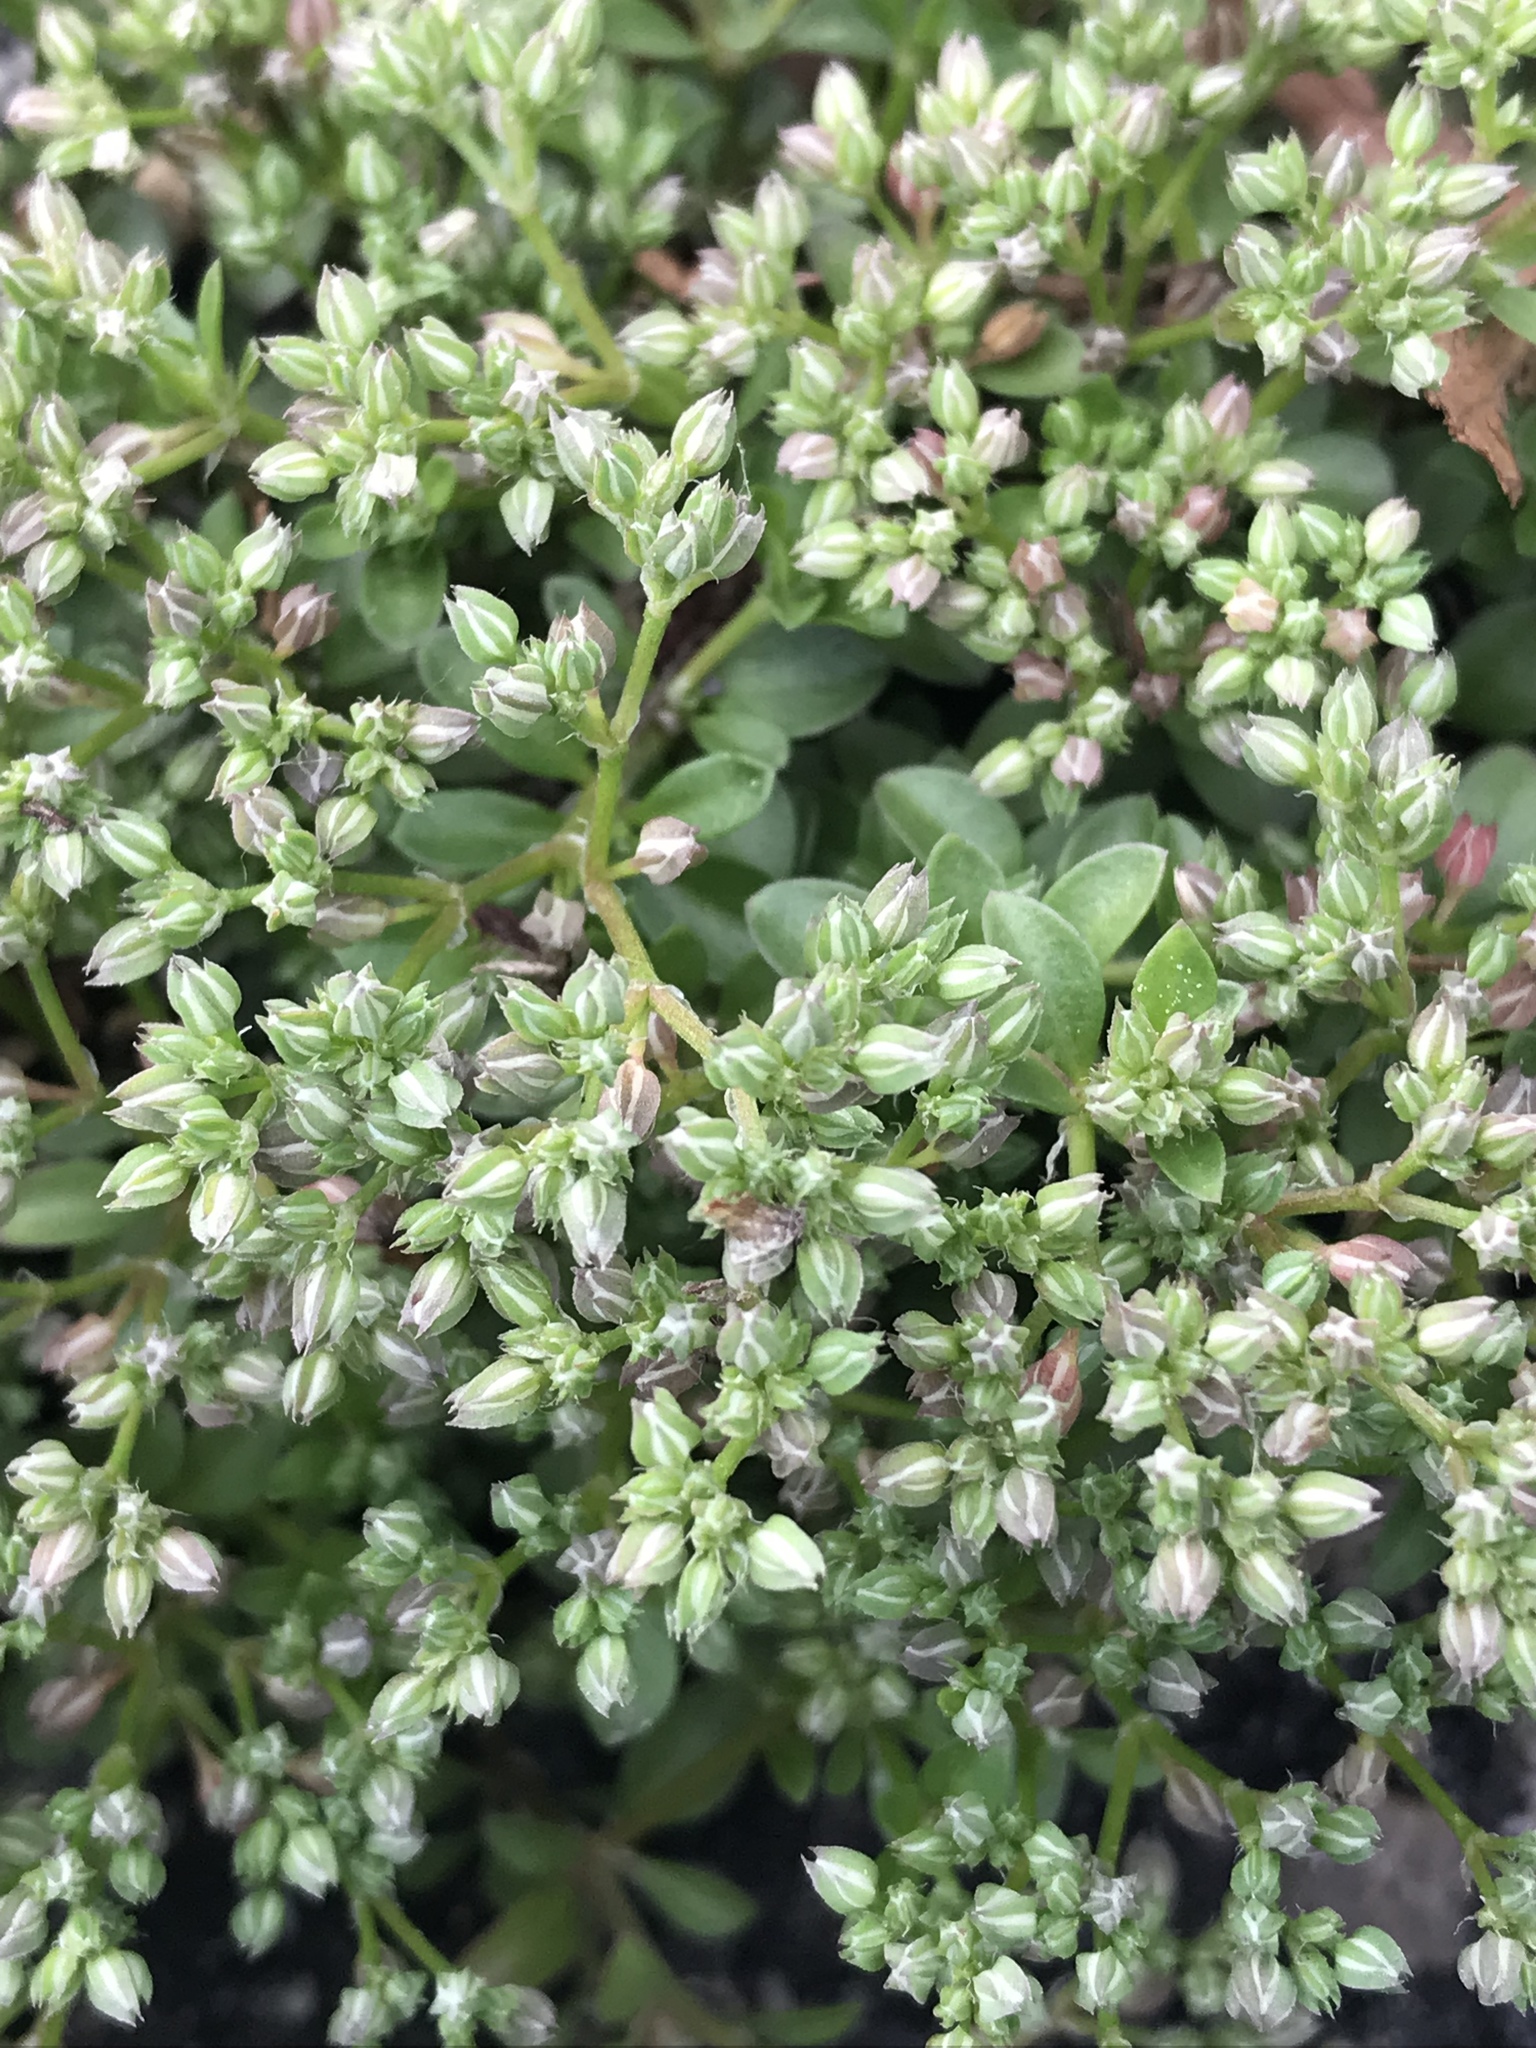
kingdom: Plantae
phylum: Tracheophyta
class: Magnoliopsida
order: Caryophyllales
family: Caryophyllaceae
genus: Polycarpon
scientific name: Polycarpon tetraphyllum
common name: Four-leaved all-seed
